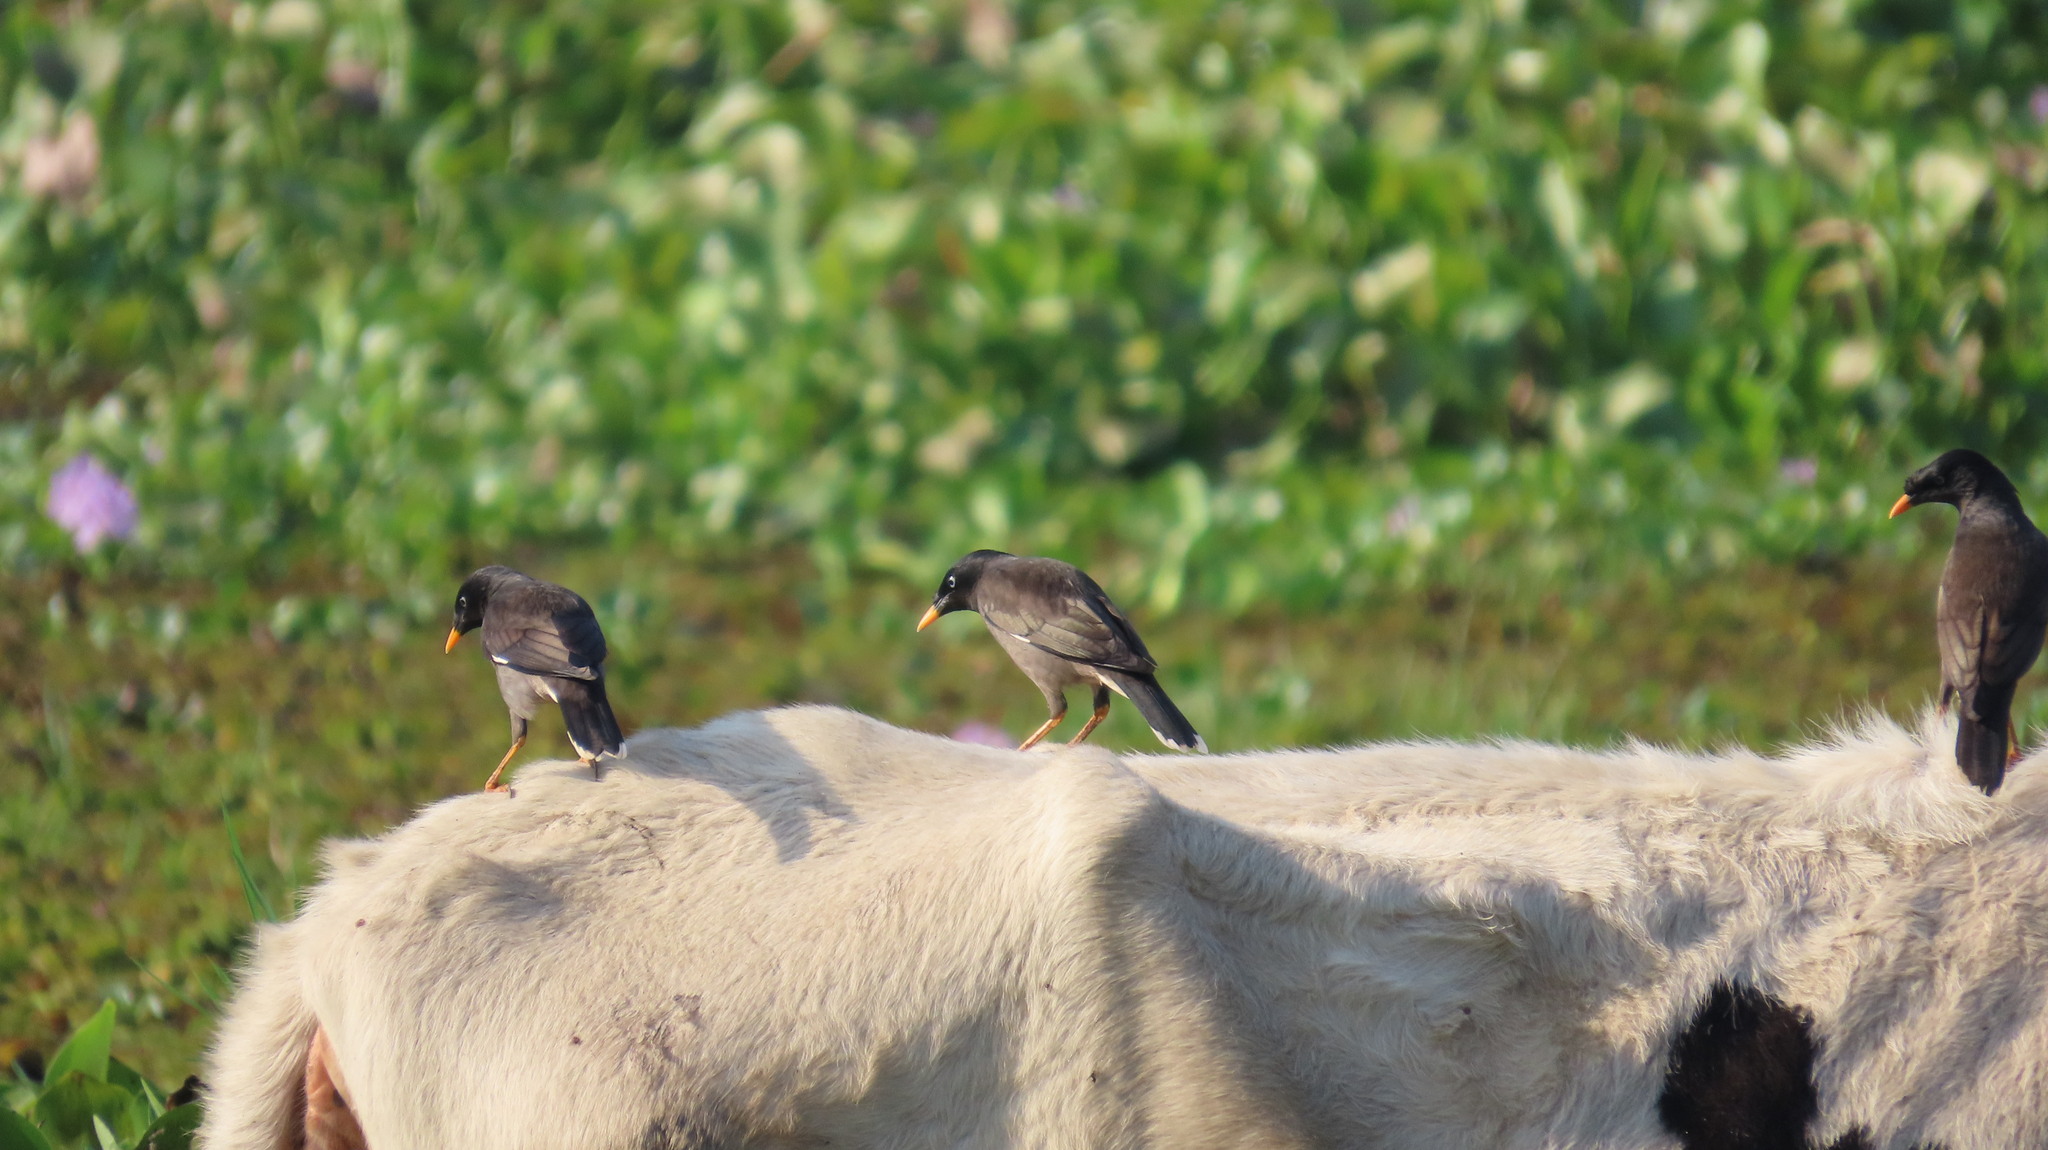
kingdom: Animalia
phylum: Chordata
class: Aves
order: Passeriformes
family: Sturnidae
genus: Acridotheres
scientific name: Acridotheres fuscus
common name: Jungle myna
